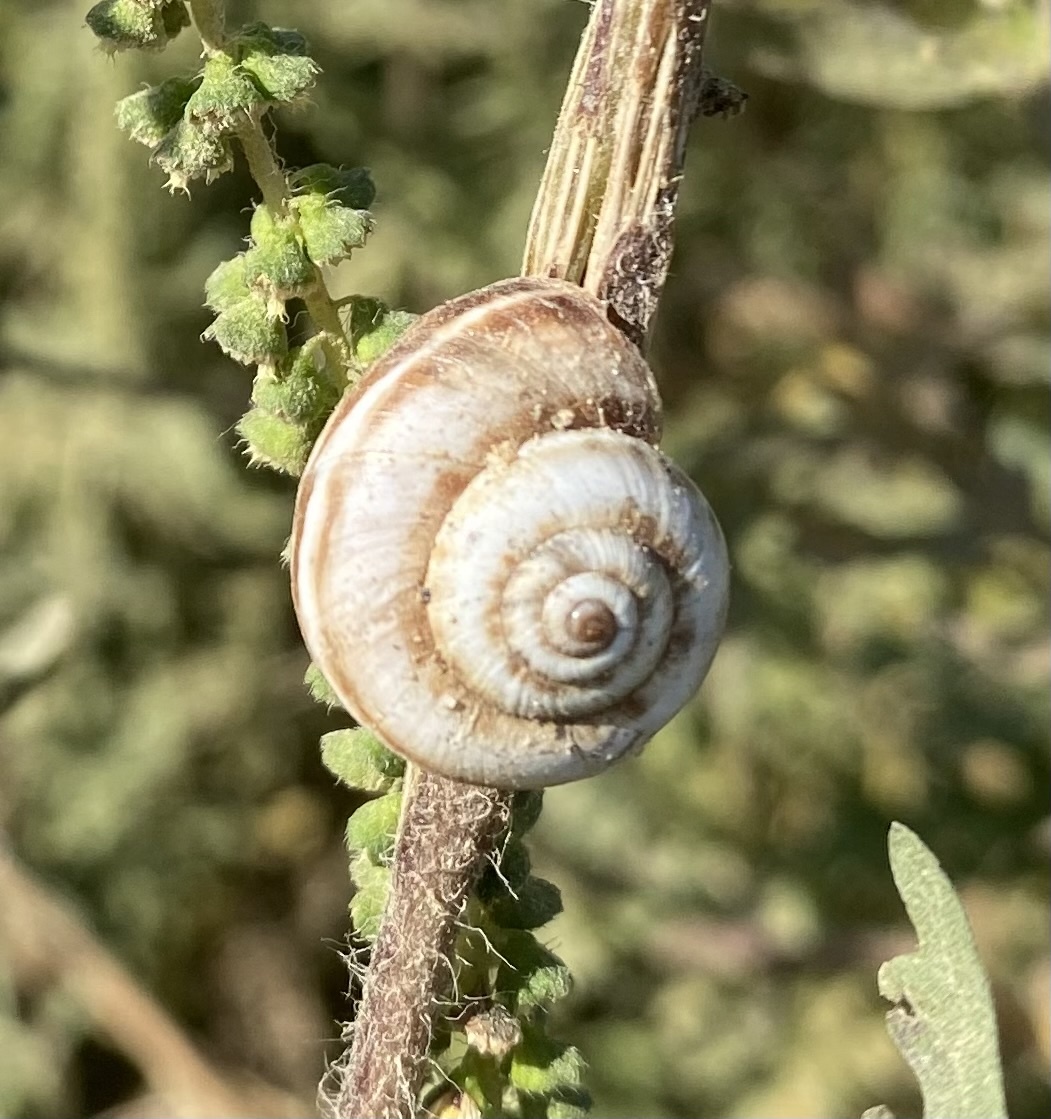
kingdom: Animalia
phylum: Mollusca
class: Gastropoda
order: Stylommatophora
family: Geomitridae
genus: Xeropicta
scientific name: Xeropicta derbentina
